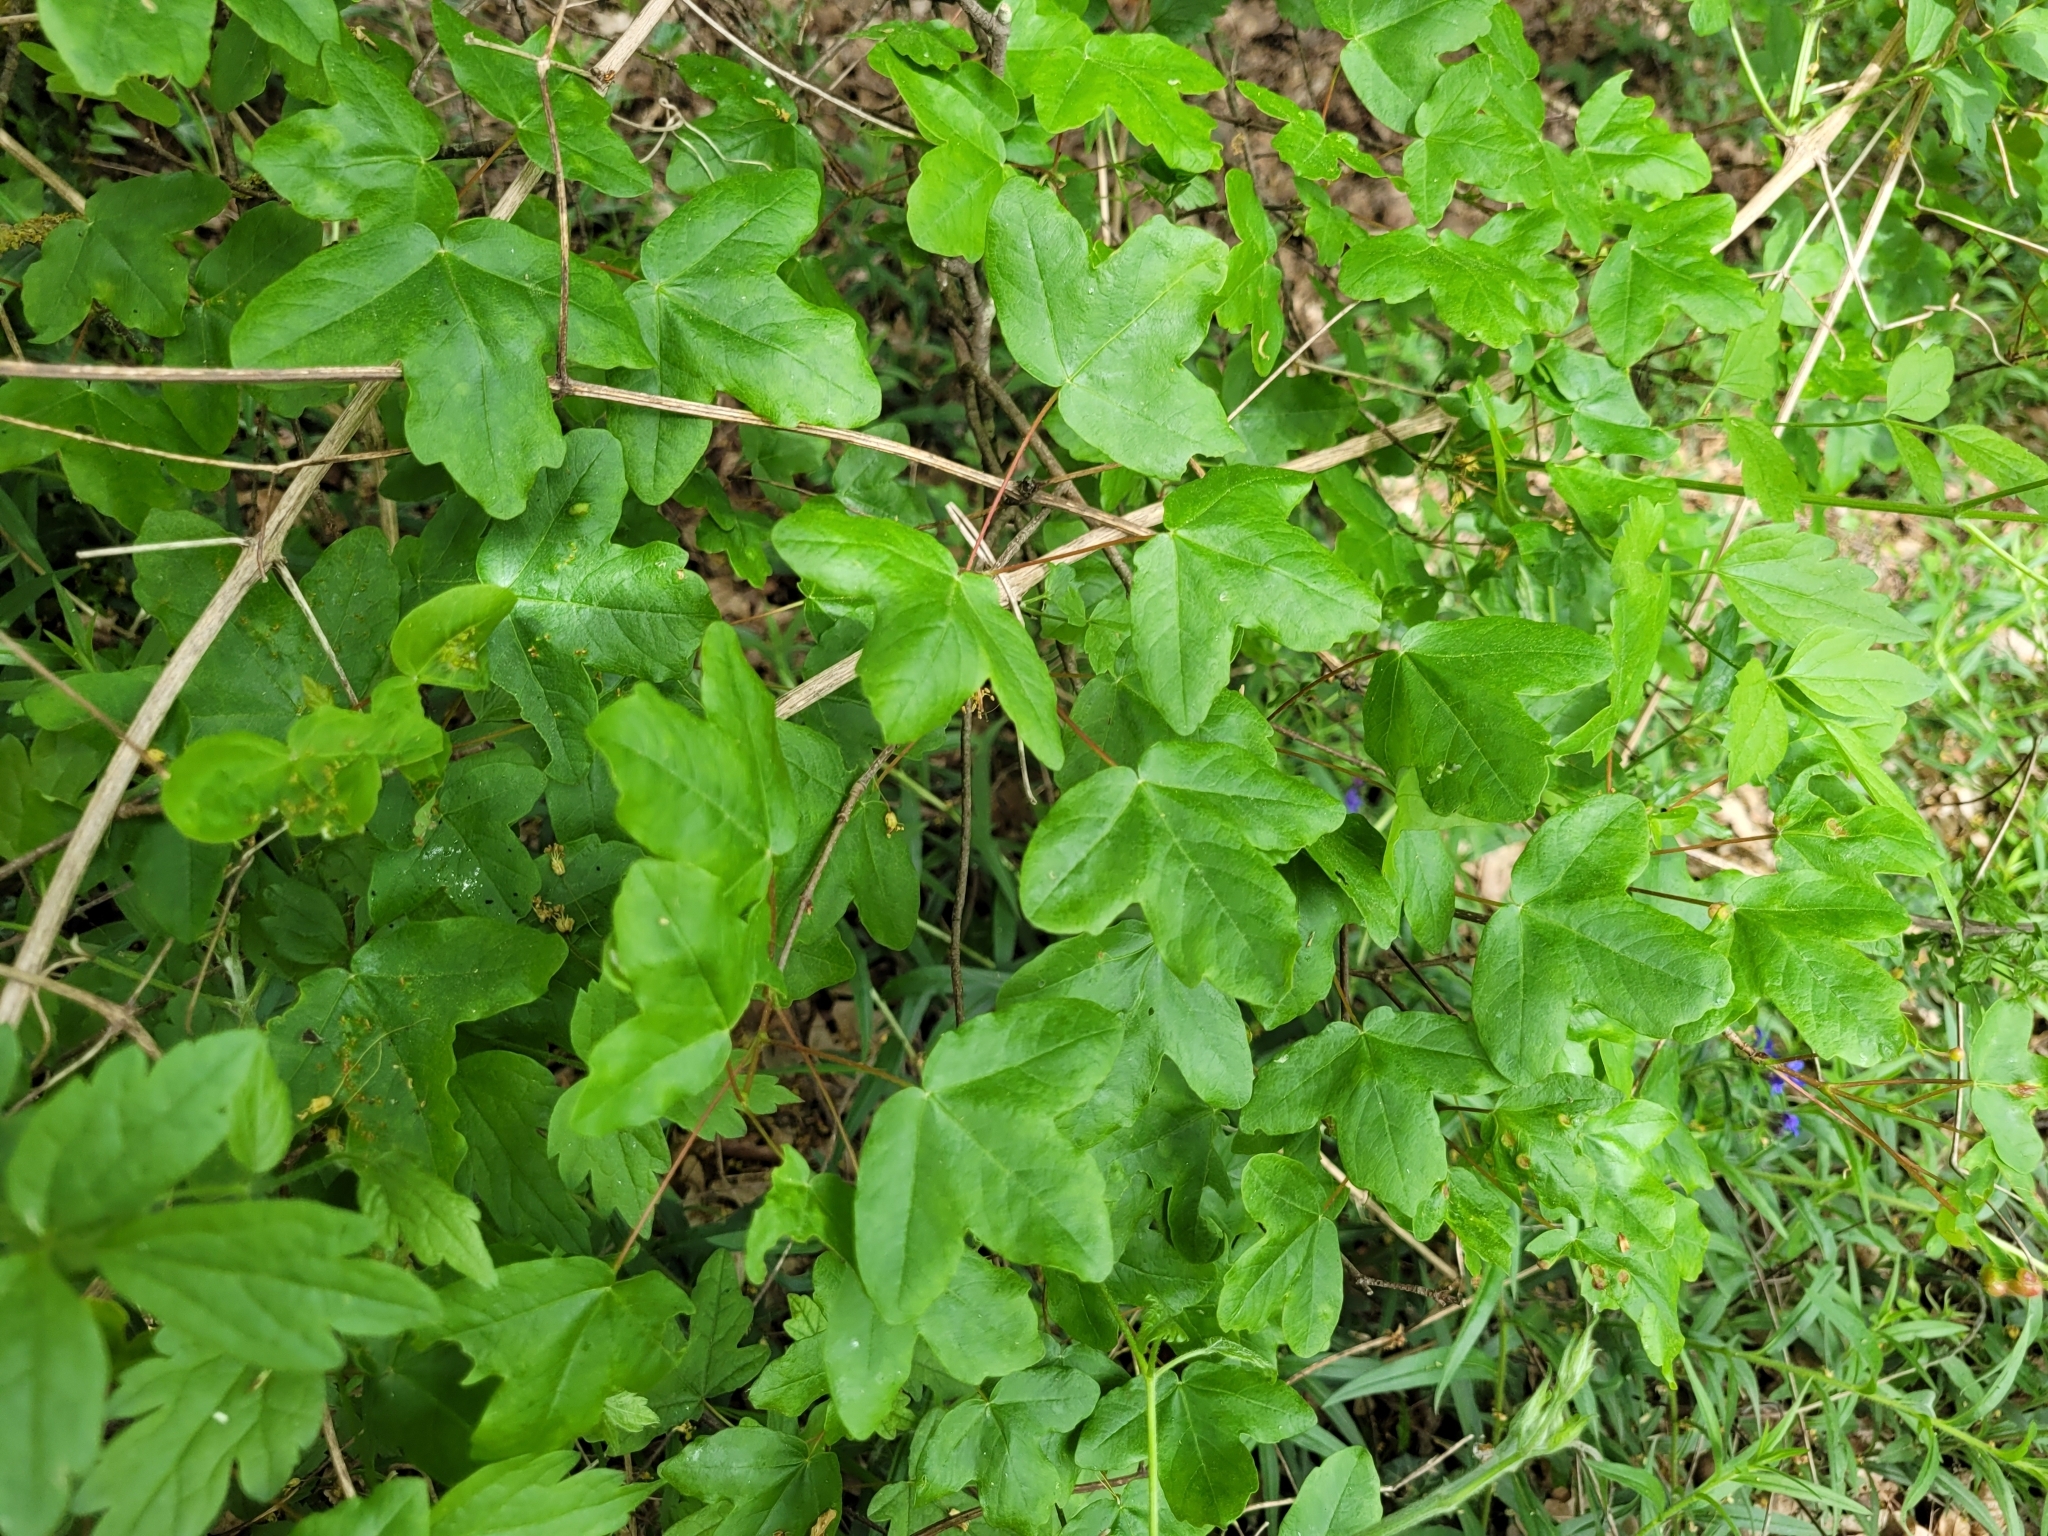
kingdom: Plantae
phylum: Tracheophyta
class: Magnoliopsida
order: Sapindales
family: Sapindaceae
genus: Acer
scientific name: Acer monspessulanum
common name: Montpellier maple
